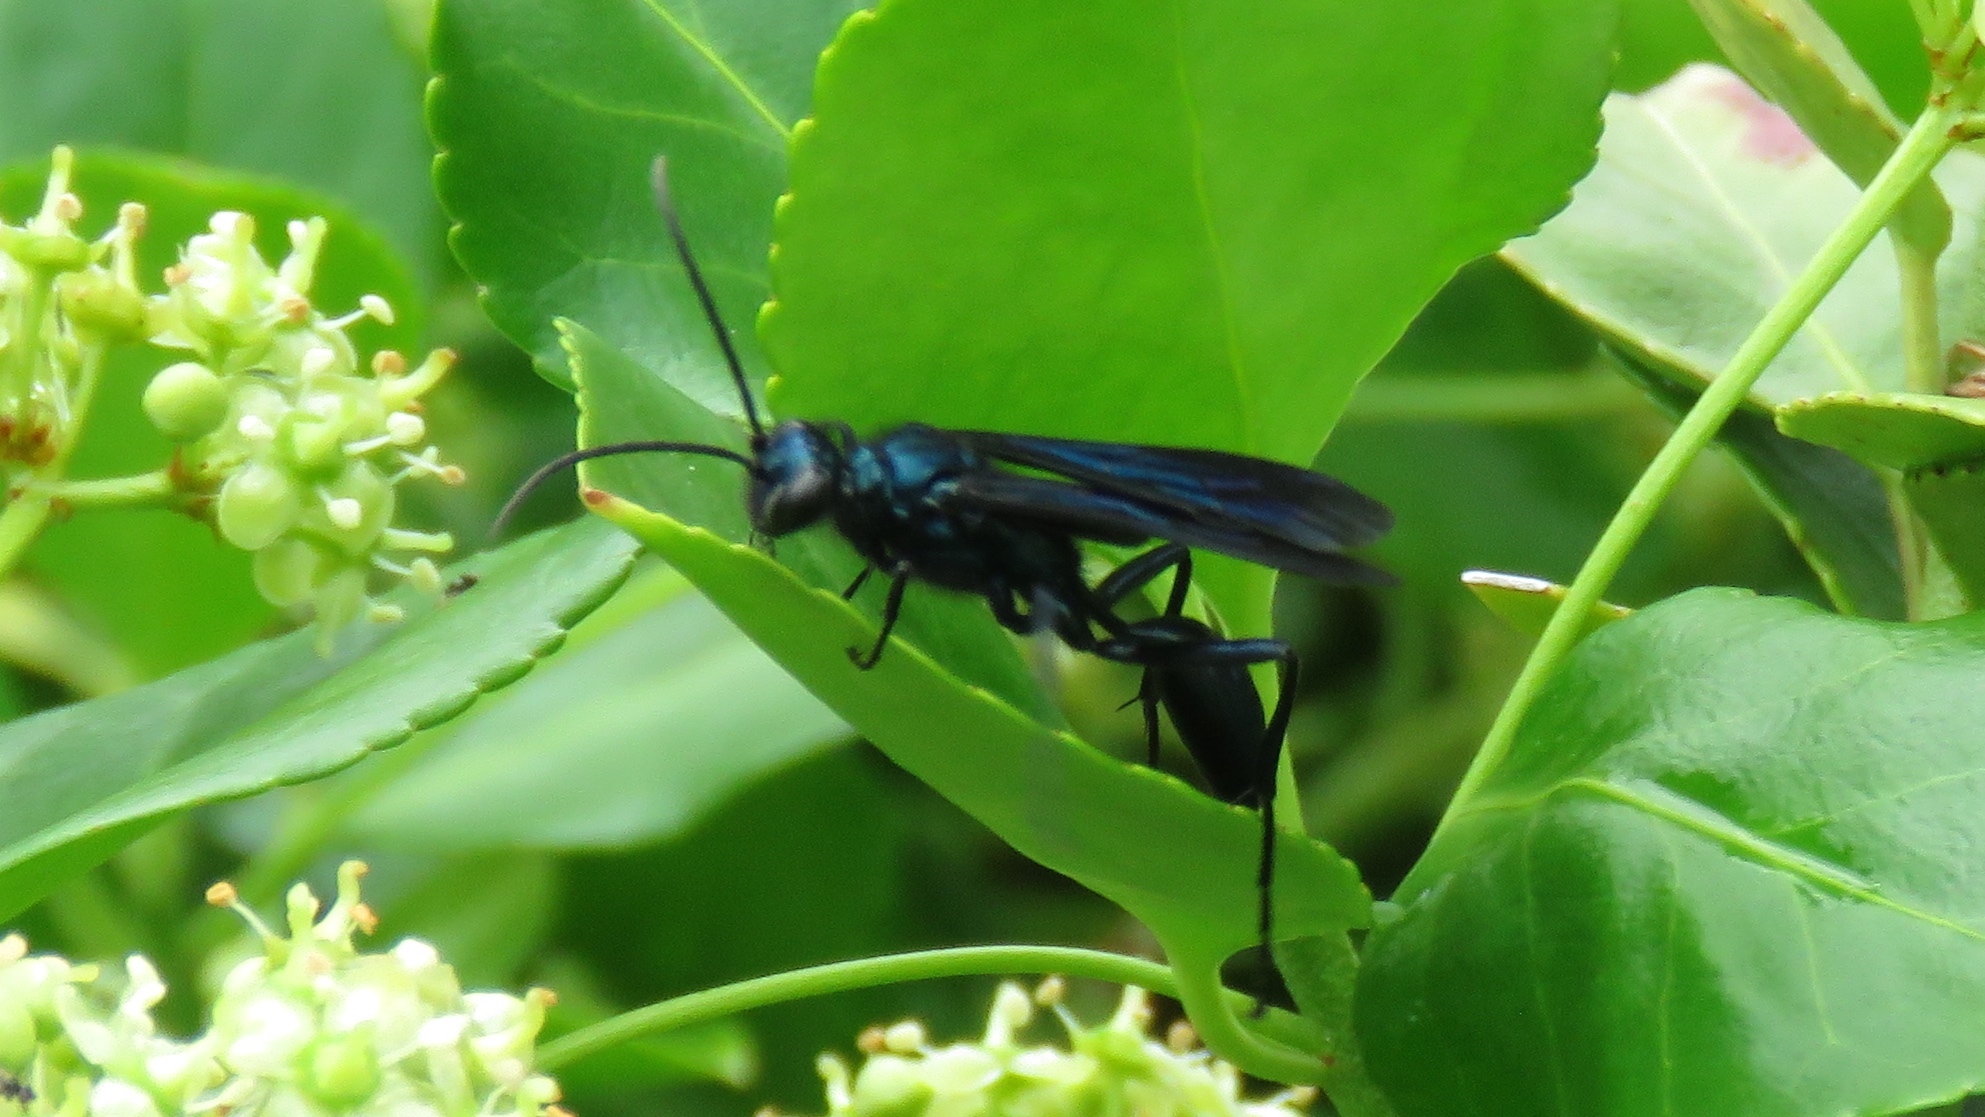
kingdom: Animalia
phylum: Arthropoda
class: Insecta
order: Hymenoptera
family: Sphecidae
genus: Chalybion
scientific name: Chalybion californicum
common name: Mud dauber
